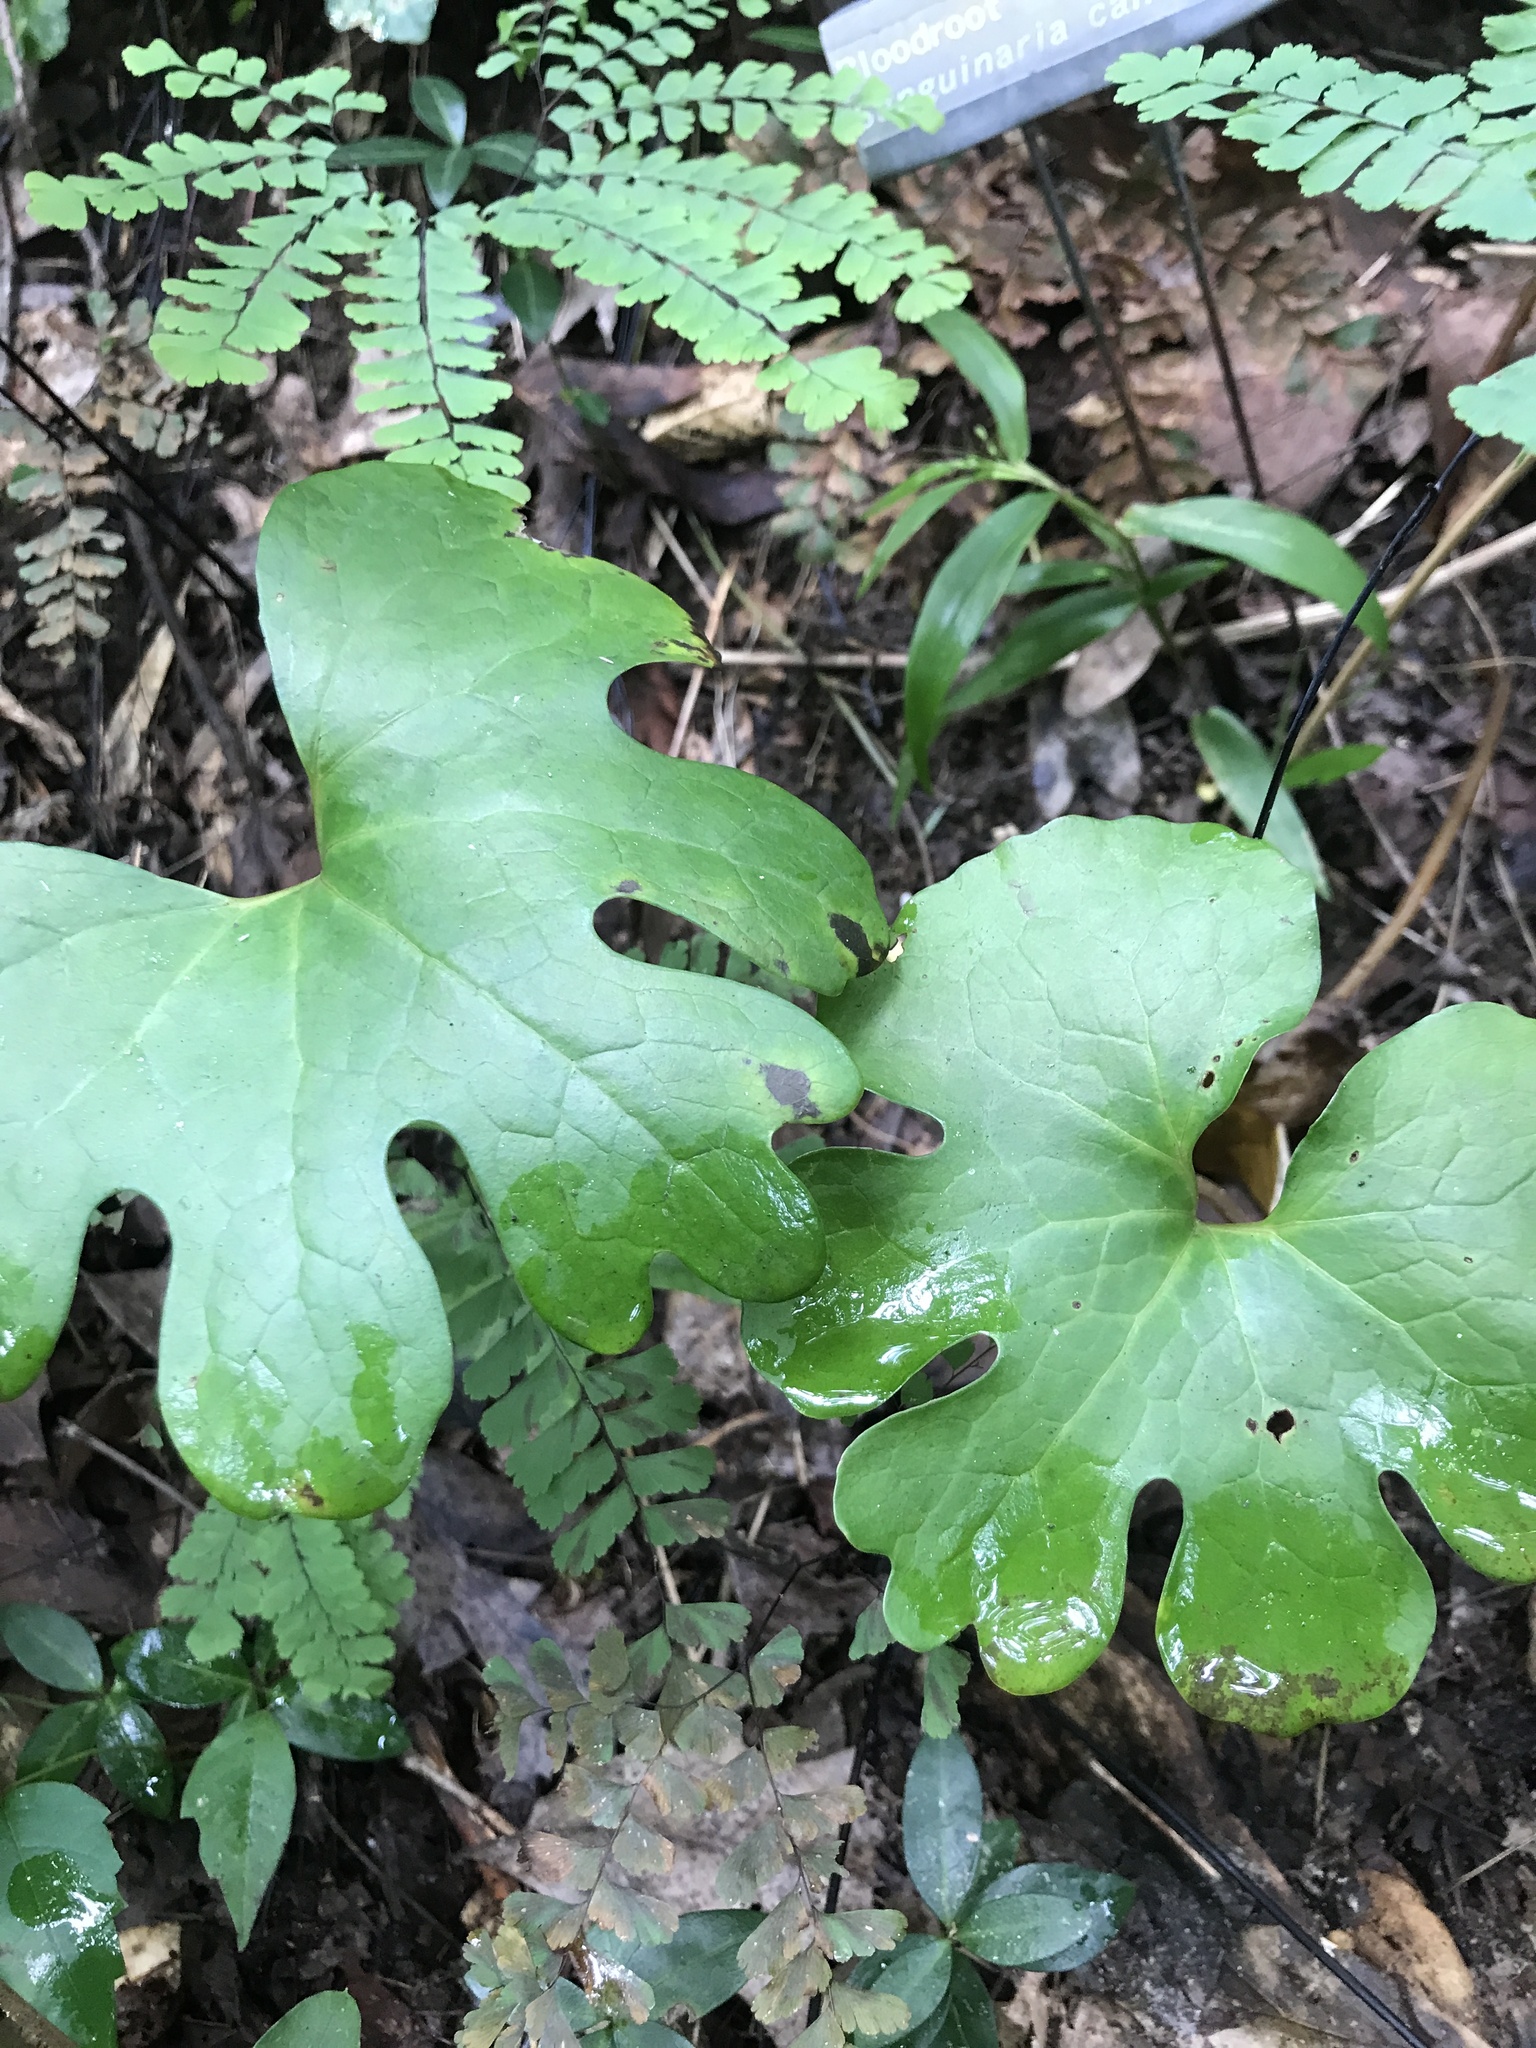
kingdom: Plantae
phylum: Tracheophyta
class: Magnoliopsida
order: Ranunculales
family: Papaveraceae
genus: Sanguinaria
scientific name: Sanguinaria canadensis
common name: Bloodroot
